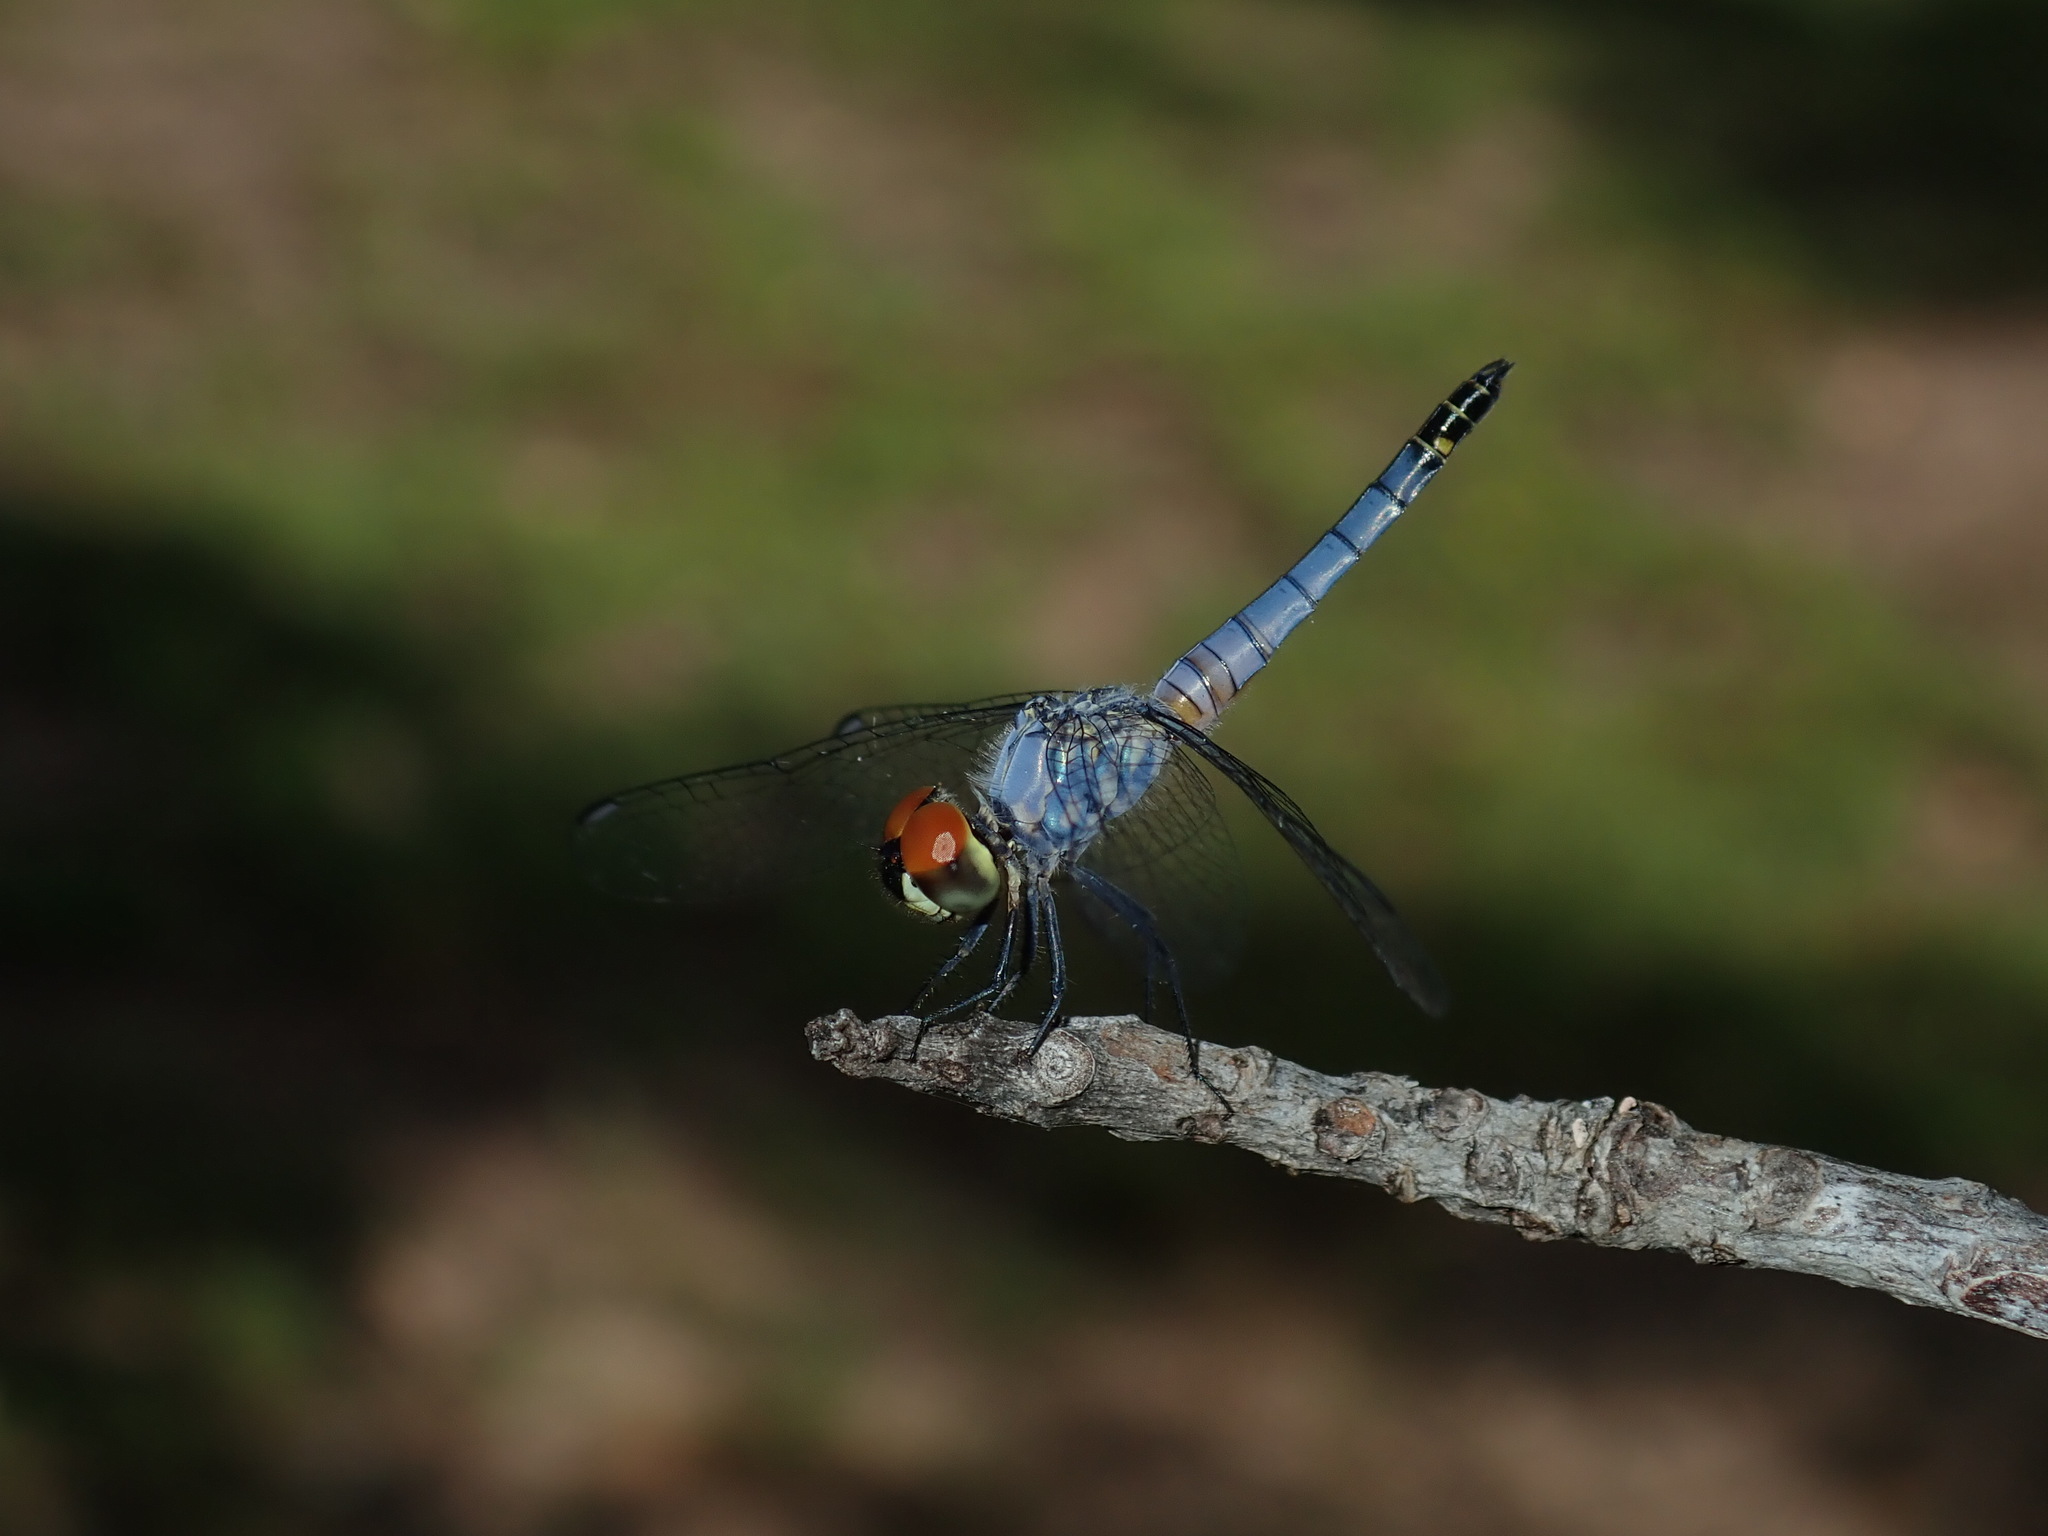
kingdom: Animalia
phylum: Arthropoda
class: Insecta
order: Odonata
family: Libellulidae
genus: Brachydiplax
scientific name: Brachydiplax denticauda
